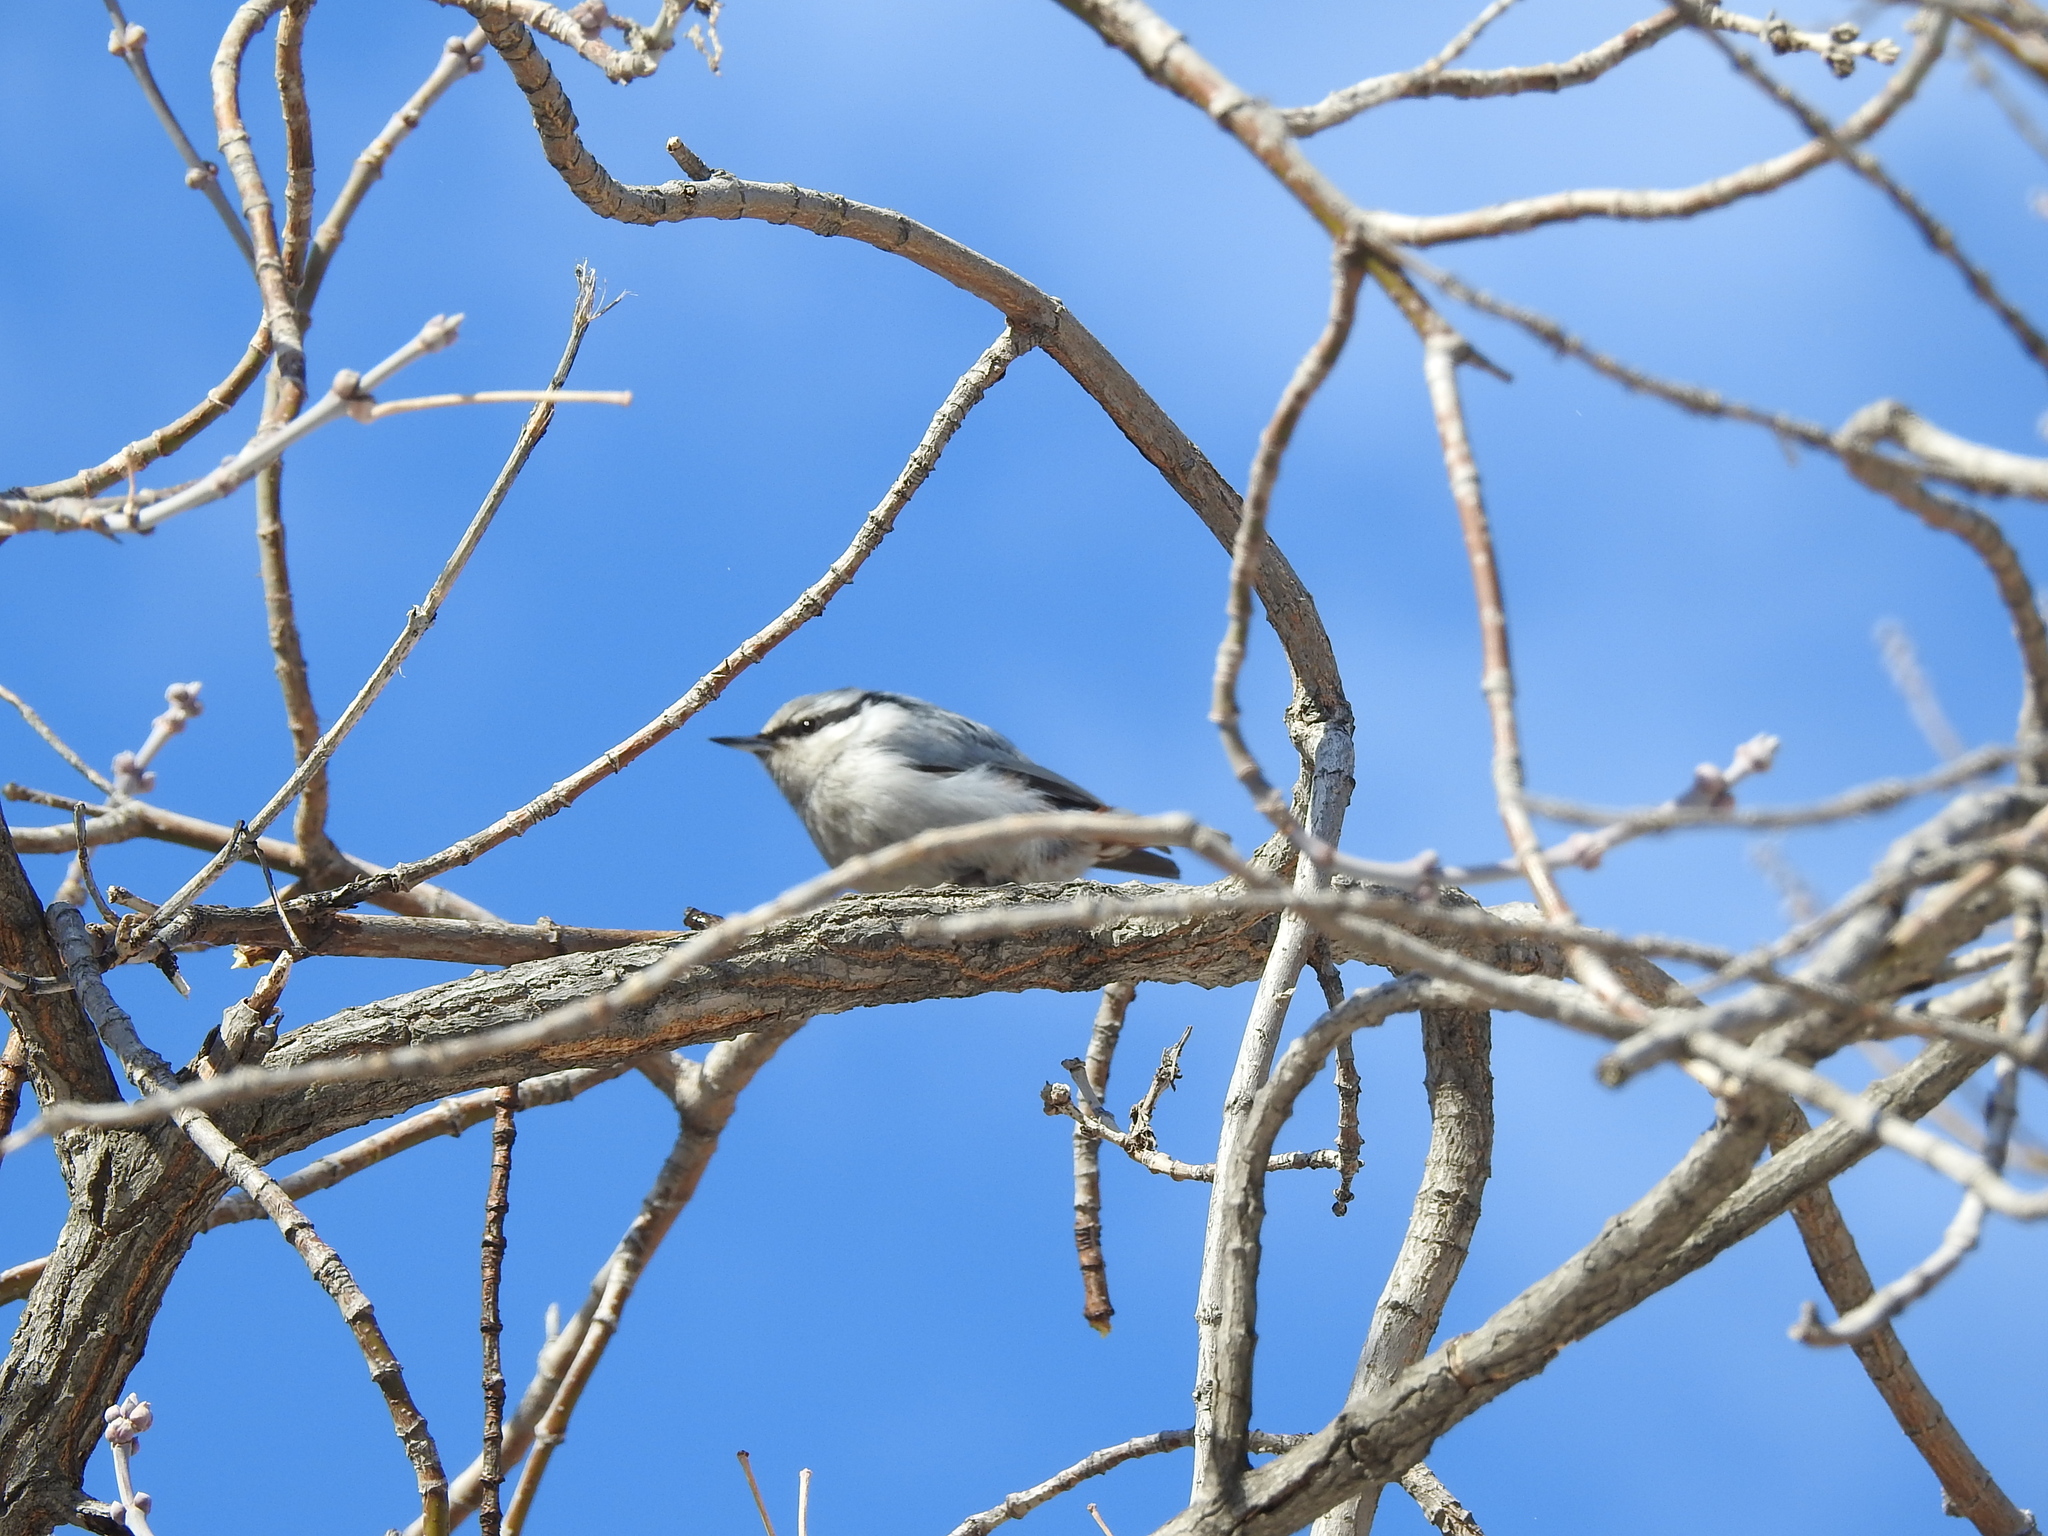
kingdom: Animalia
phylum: Chordata
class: Aves
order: Passeriformes
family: Sittidae
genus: Sitta
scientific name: Sitta europaea
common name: Eurasian nuthatch
